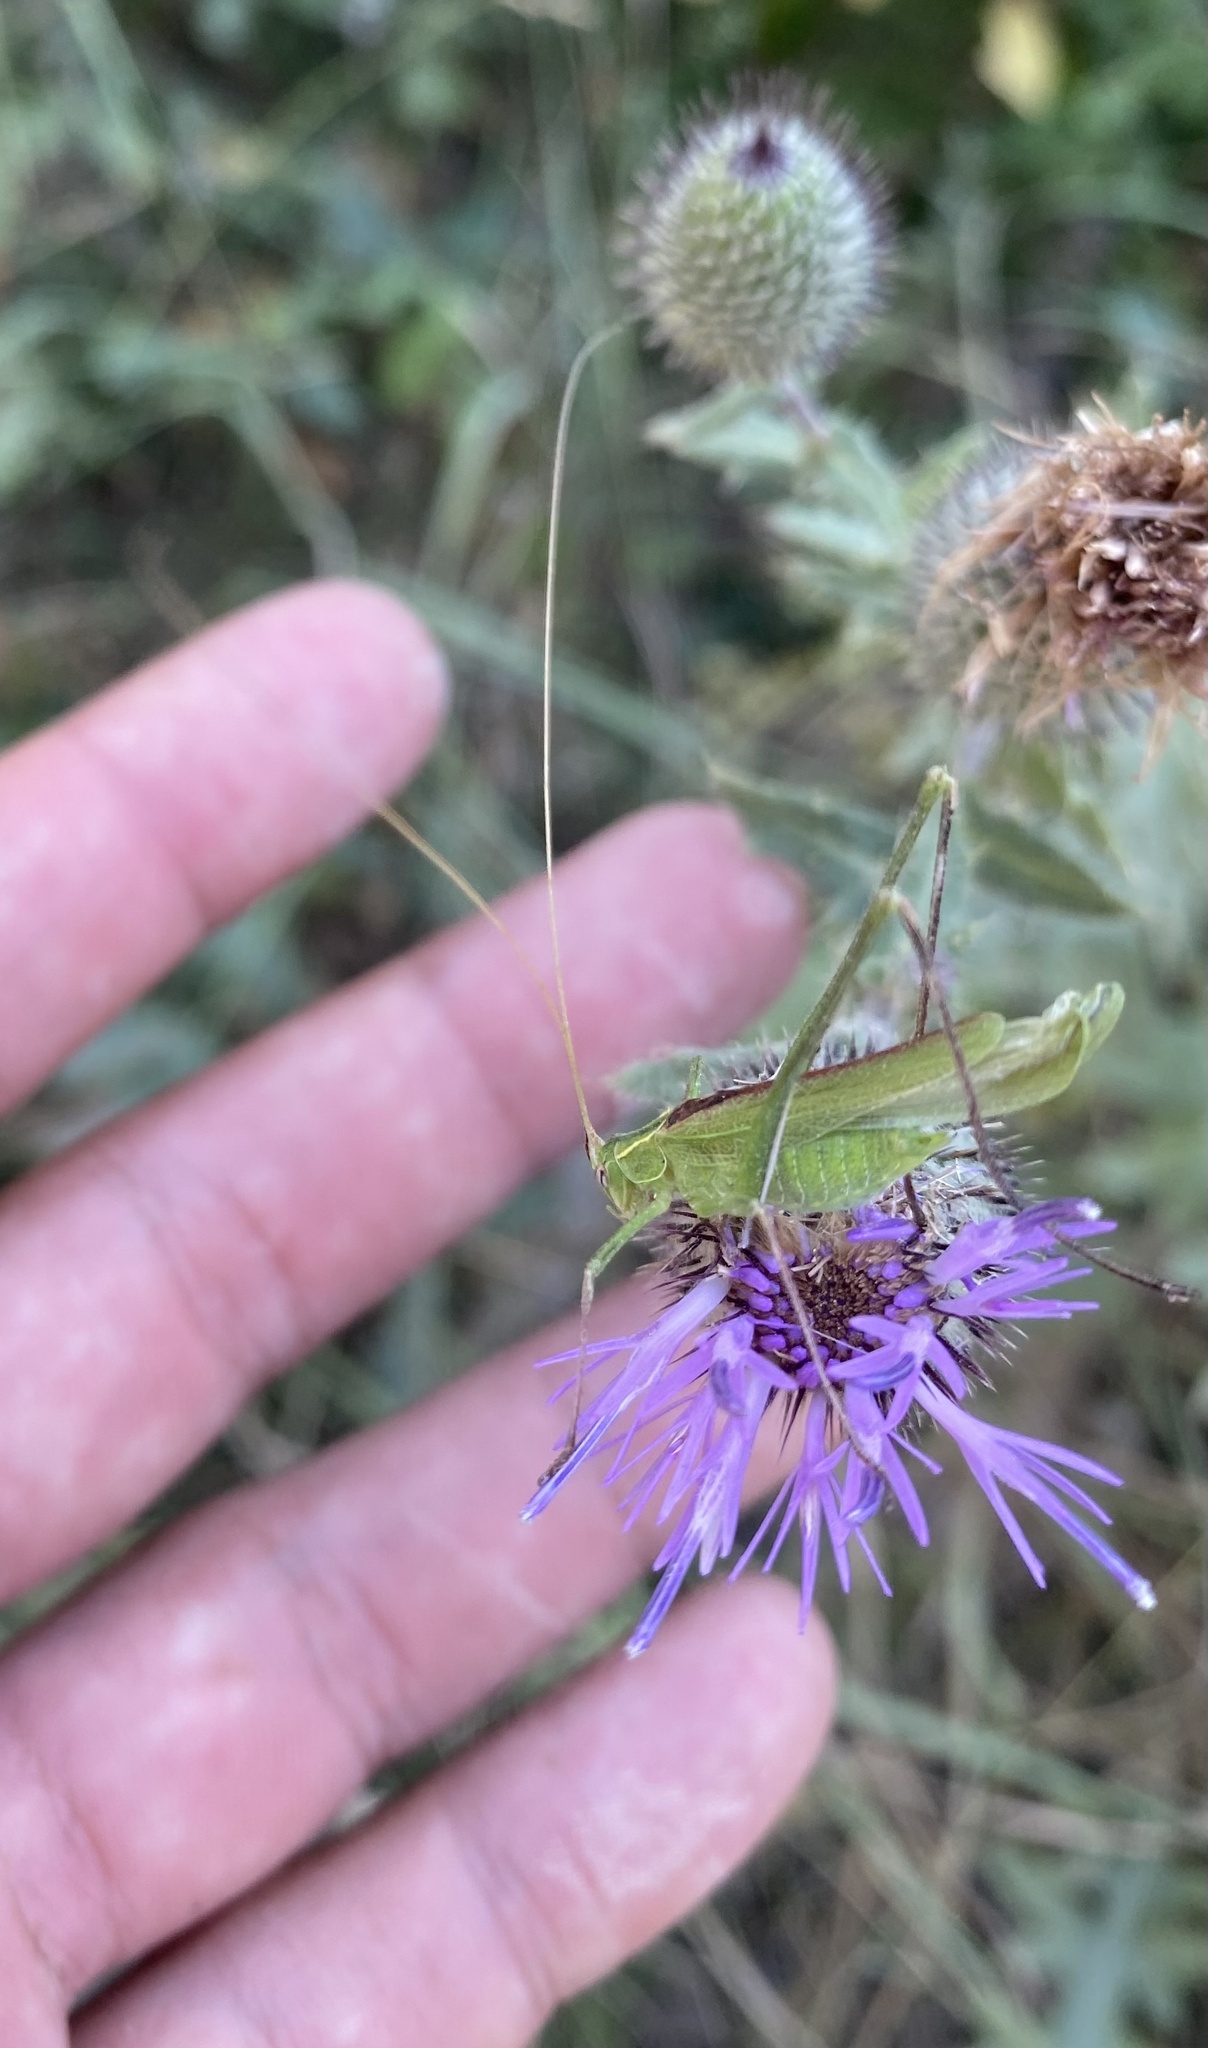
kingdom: Animalia
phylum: Arthropoda
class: Insecta
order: Orthoptera
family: Tettigoniidae
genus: Tylopsis
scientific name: Tylopsis lilifolia
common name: Lily bush-cricket
